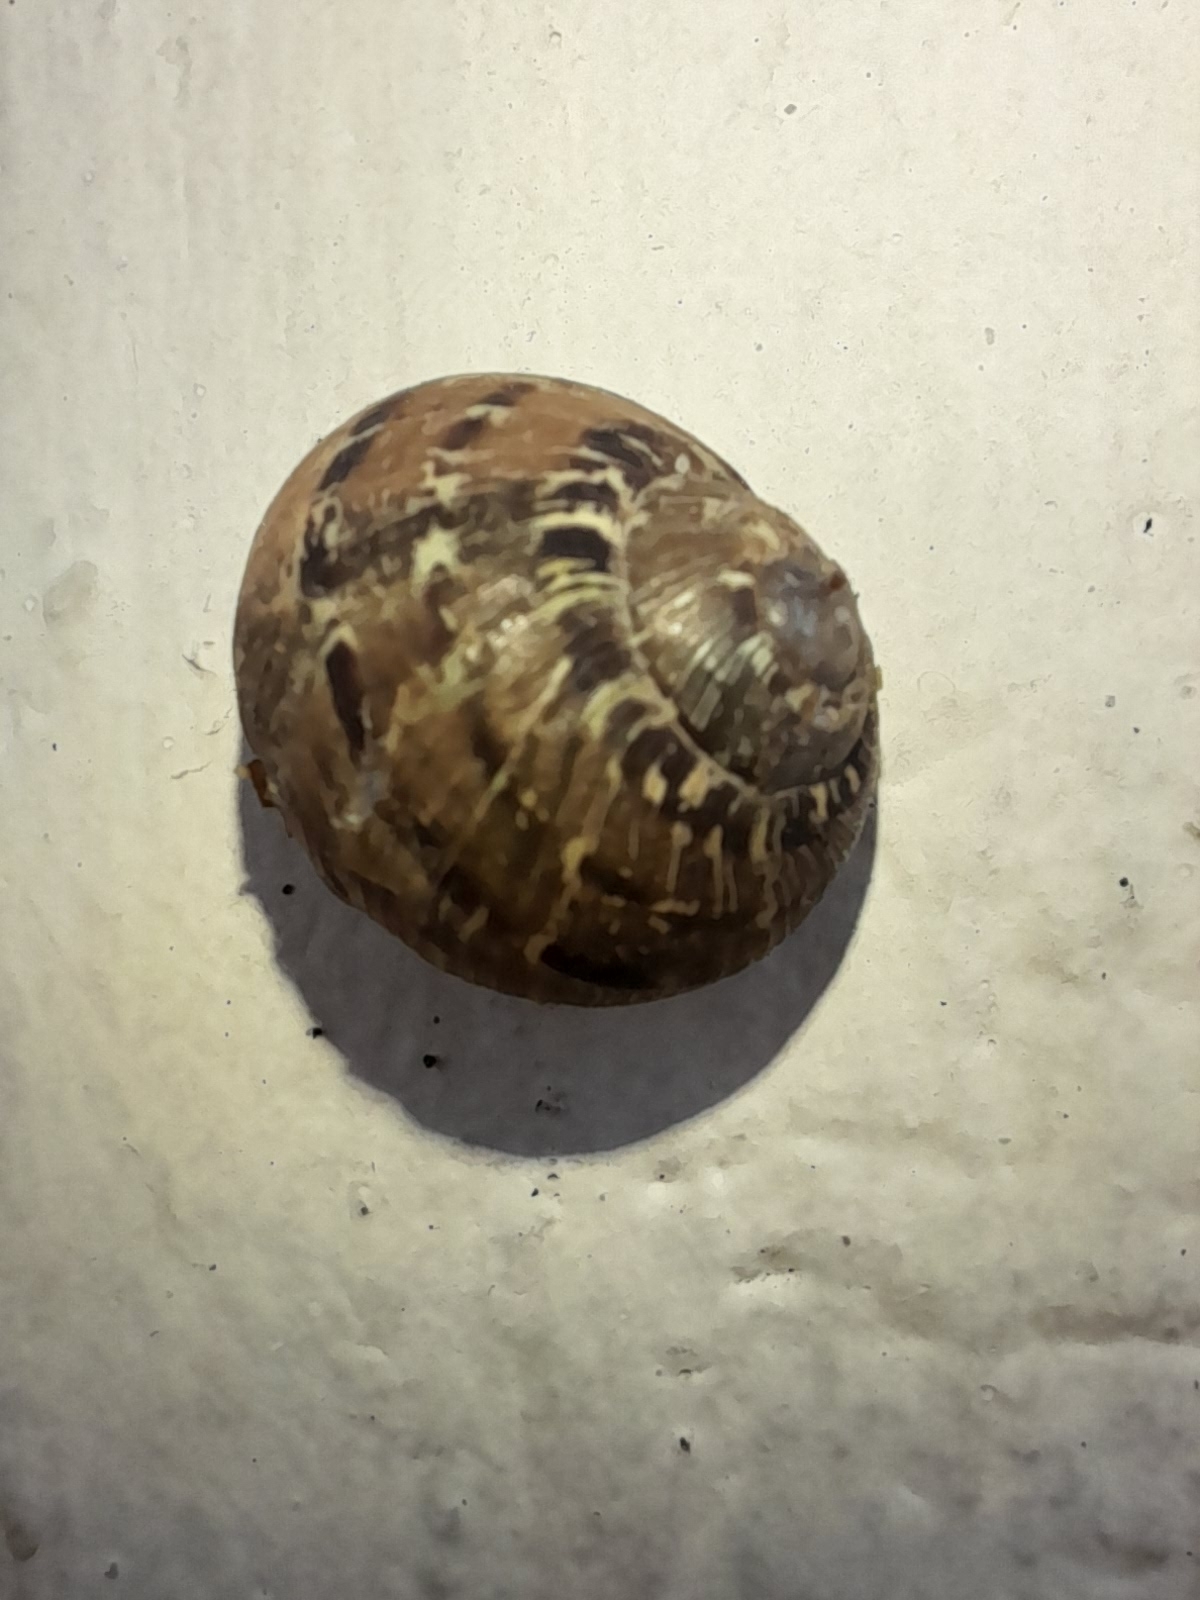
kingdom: Animalia
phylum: Mollusca
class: Gastropoda
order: Stylommatophora
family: Helicidae
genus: Cornu
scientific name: Cornu aspersum
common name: Brown garden snail
